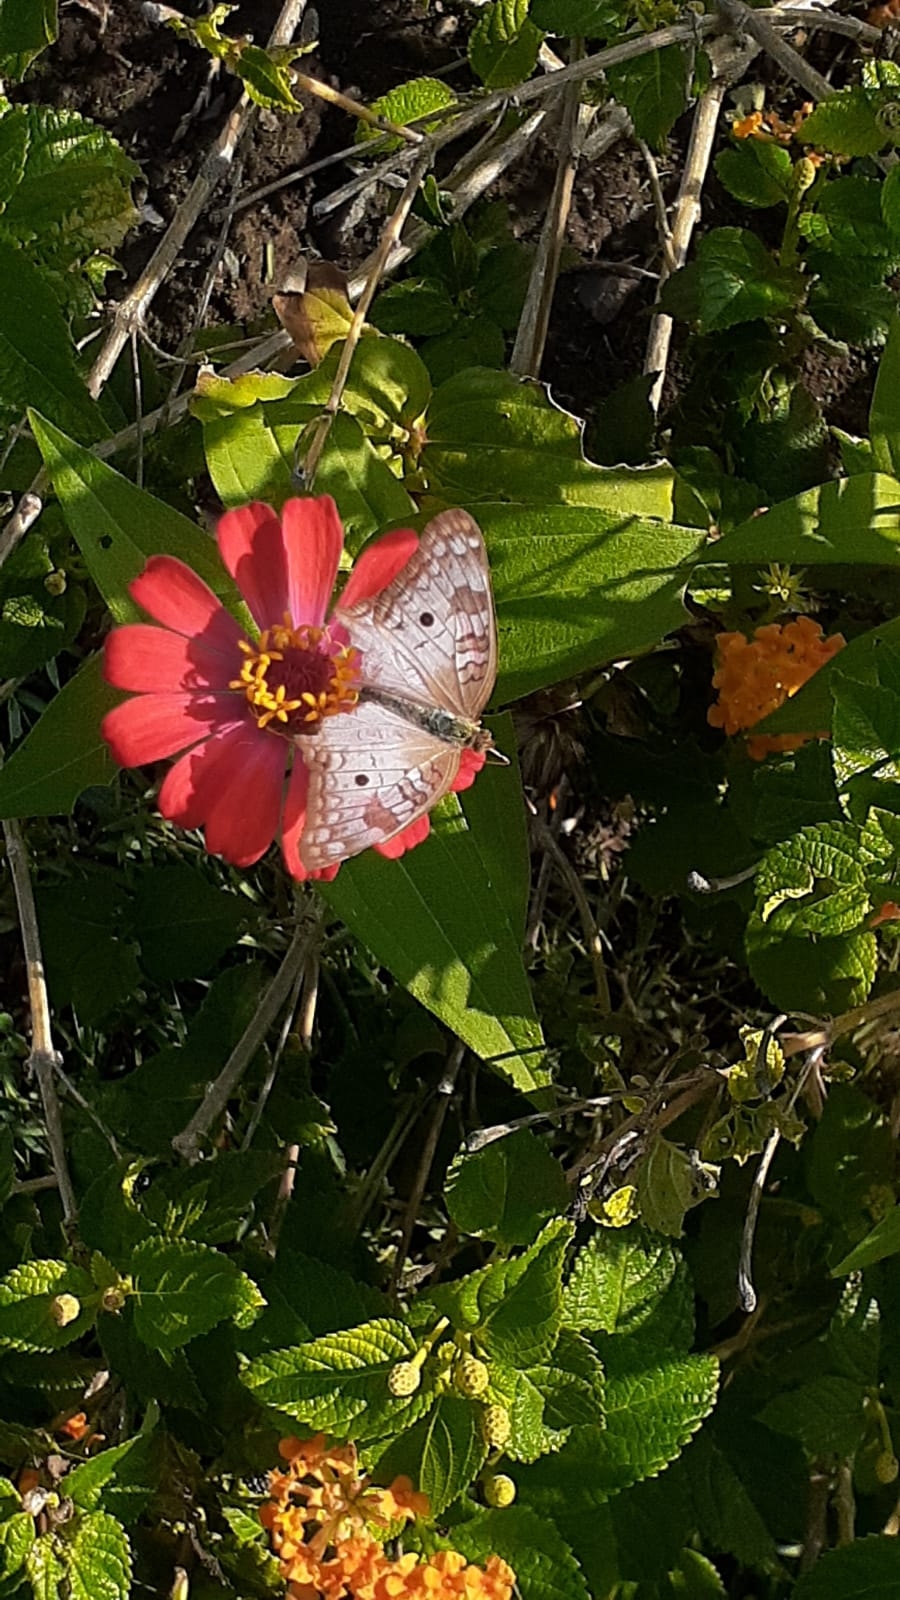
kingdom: Animalia
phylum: Arthropoda
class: Insecta
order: Lepidoptera
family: Nymphalidae
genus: Anartia
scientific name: Anartia jatrophae
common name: White peacock
